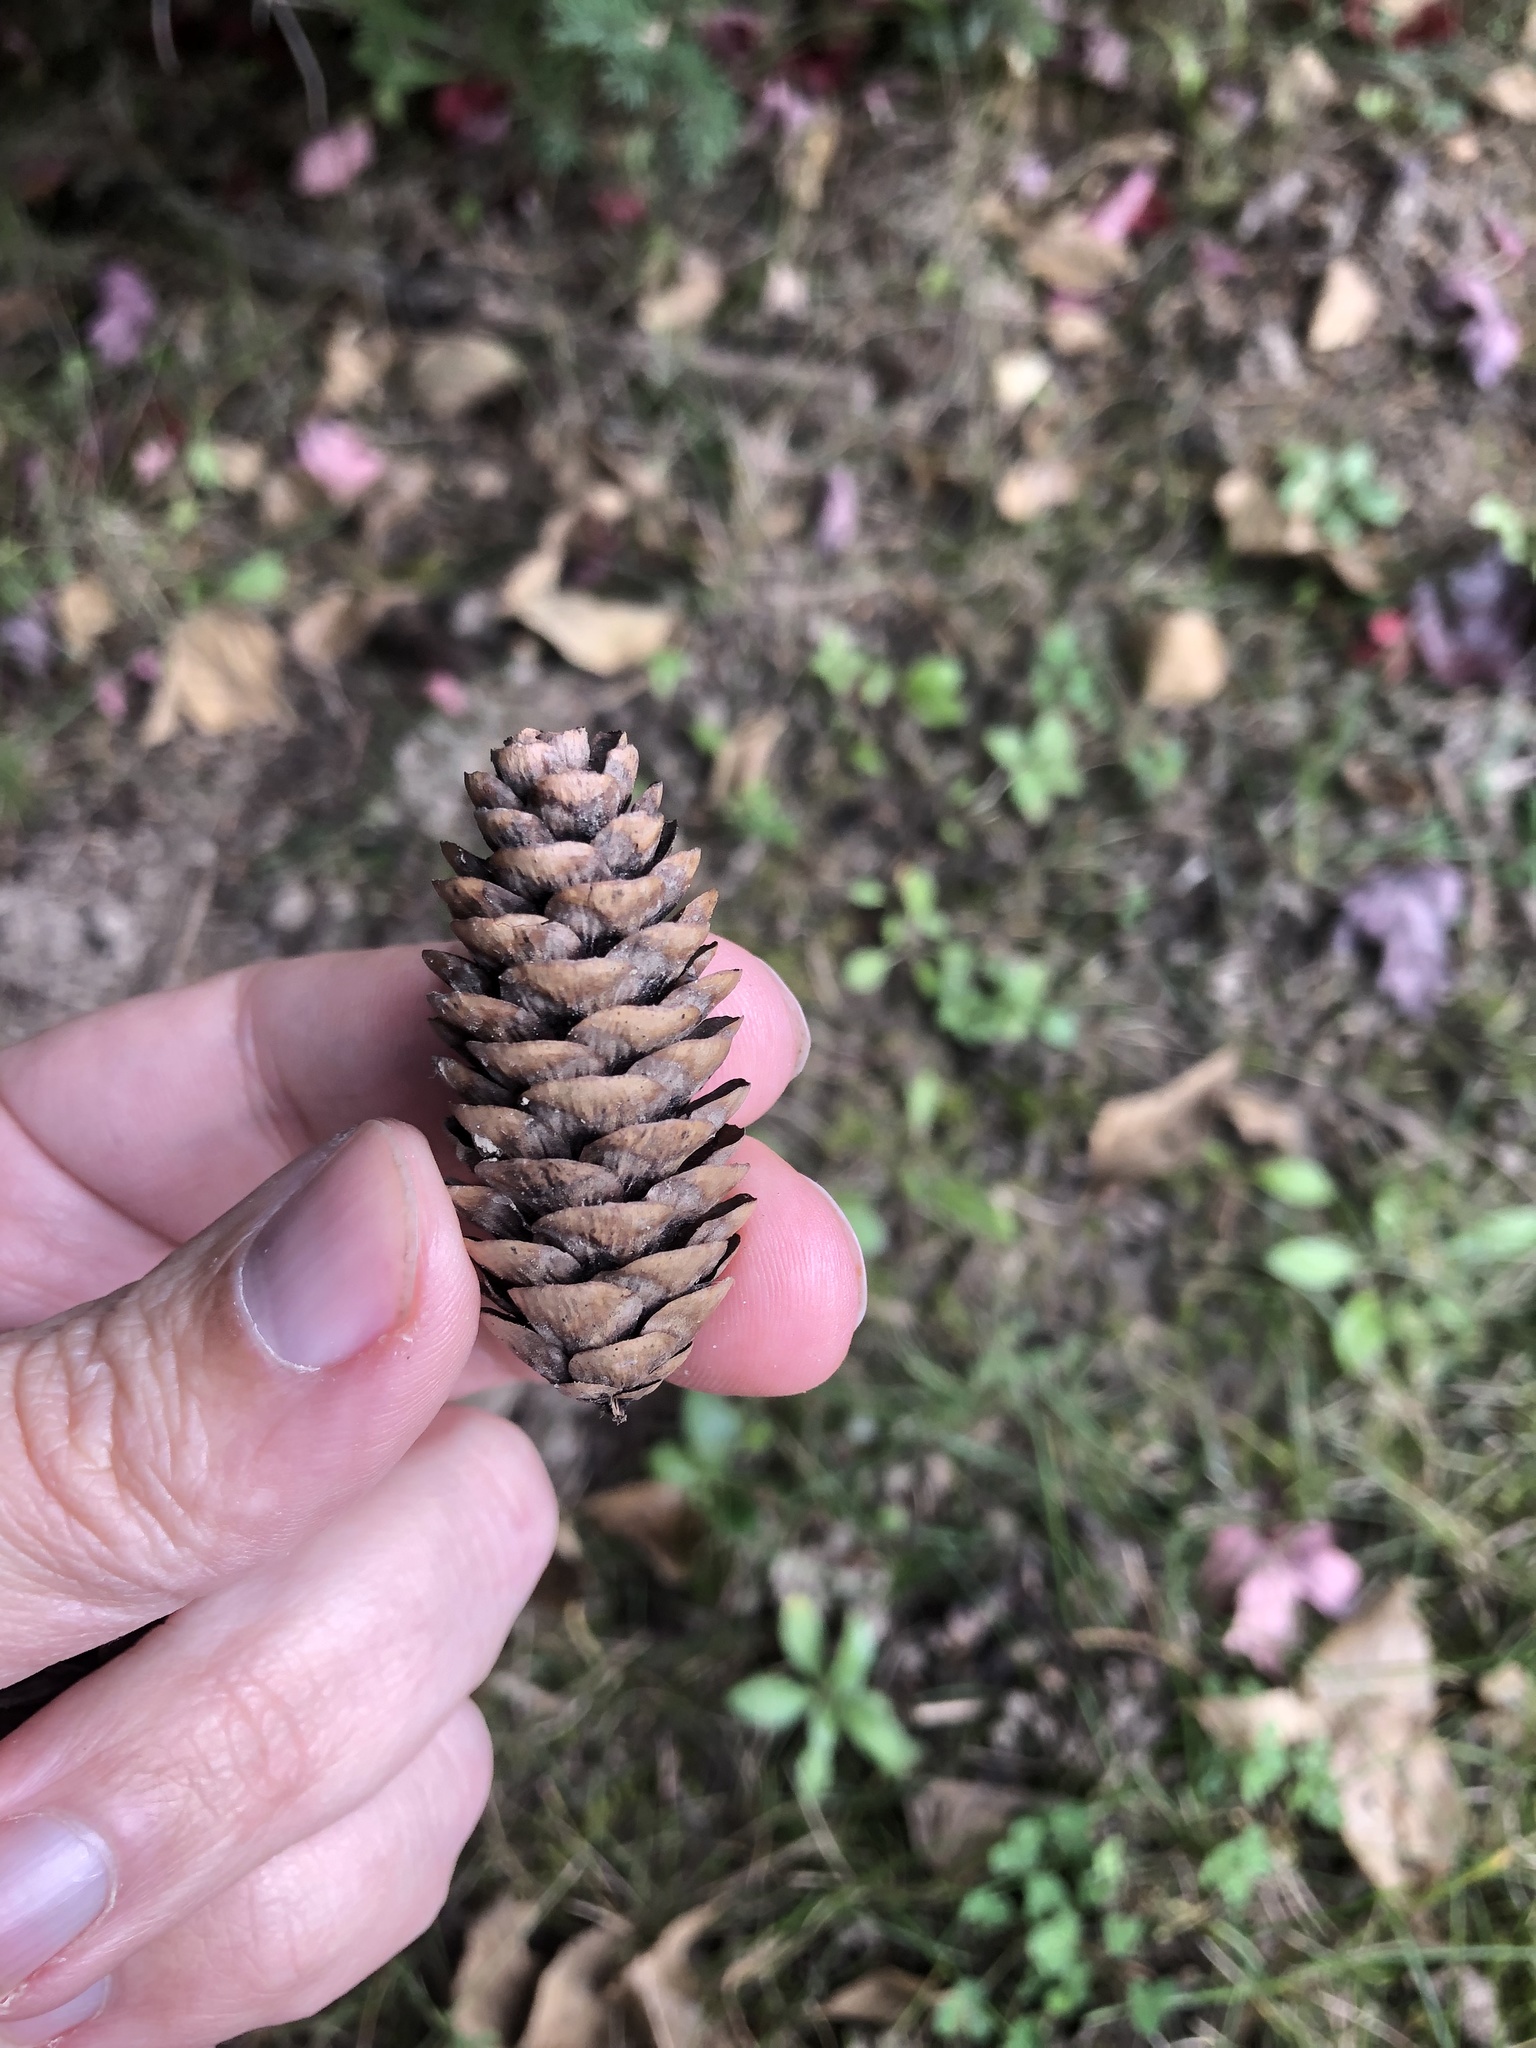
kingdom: Plantae
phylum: Tracheophyta
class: Pinopsida
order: Pinales
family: Pinaceae
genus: Picea
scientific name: Picea glauca
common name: White spruce
